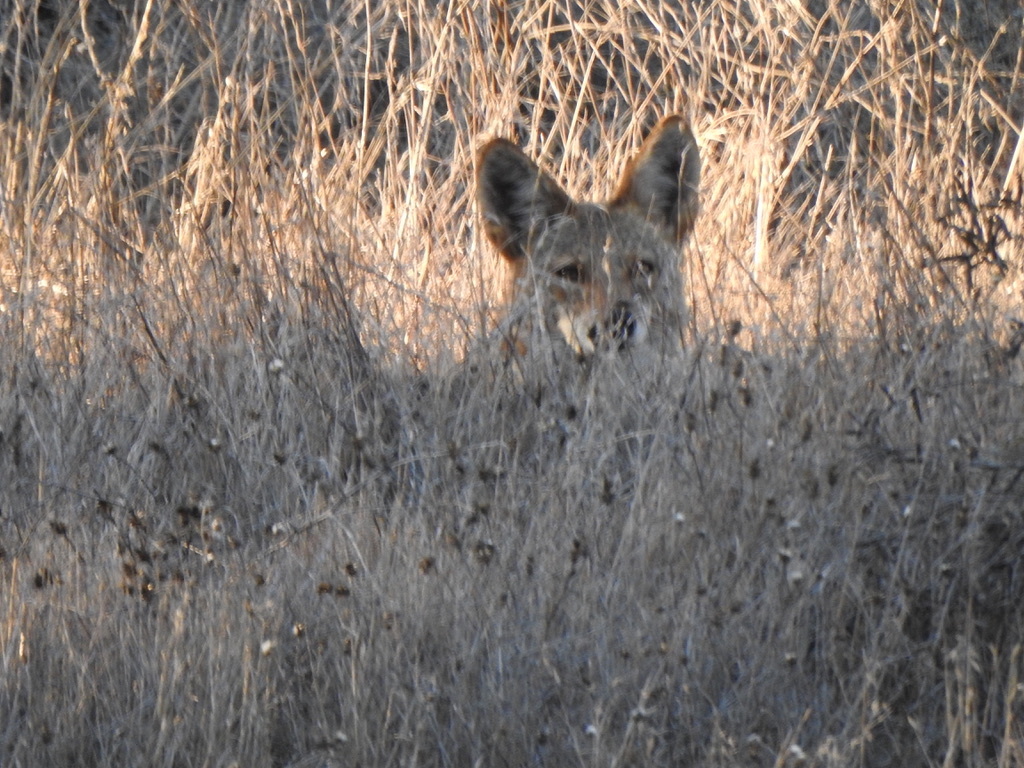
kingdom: Animalia
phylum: Chordata
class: Mammalia
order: Carnivora
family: Canidae
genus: Canis
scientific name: Canis latrans
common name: Coyote
